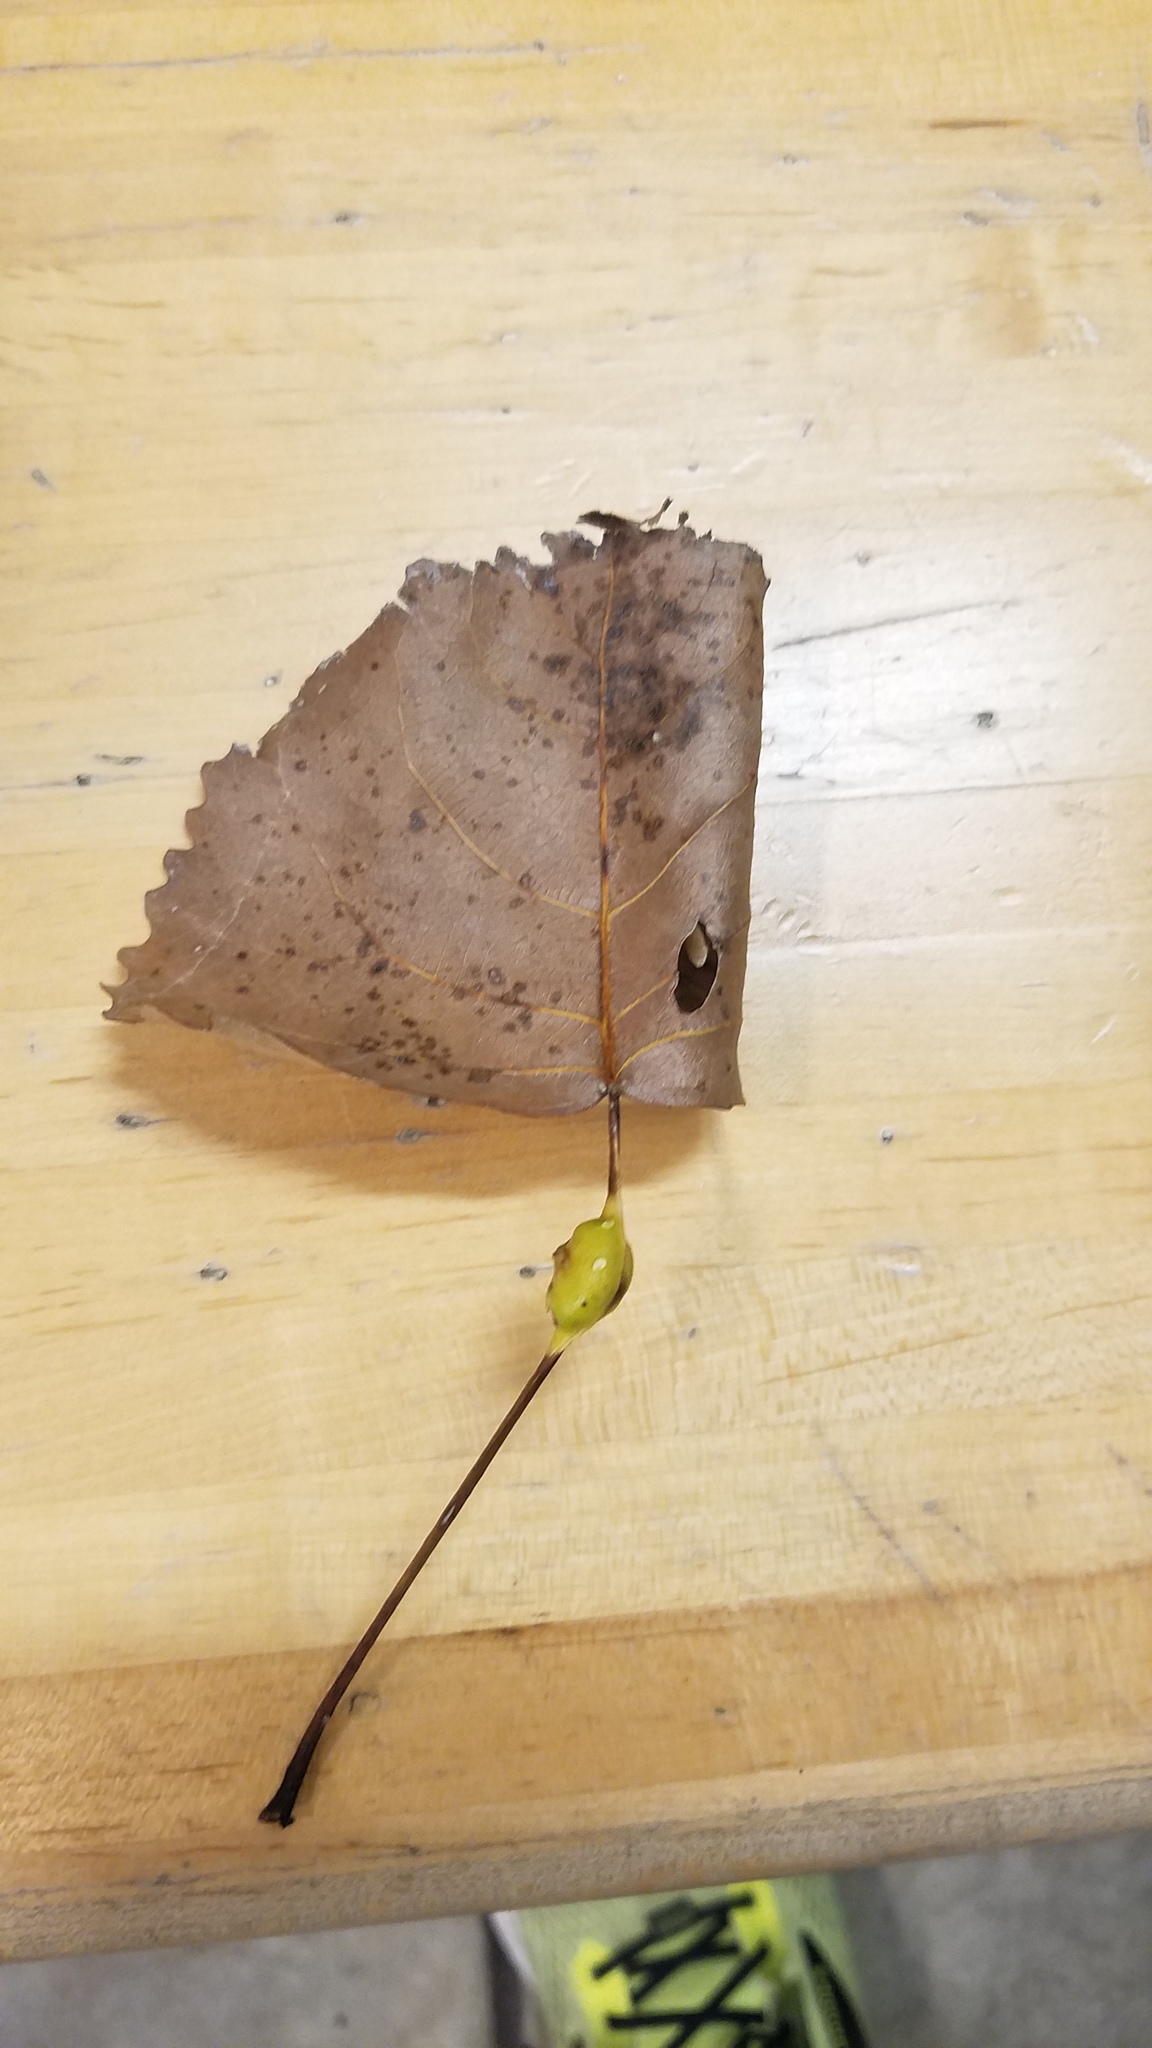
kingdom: Animalia
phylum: Arthropoda
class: Insecta
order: Hemiptera
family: Aphididae
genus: Pemphigus
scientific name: Pemphigus populitransversus
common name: Poplar petiolegall aphid
